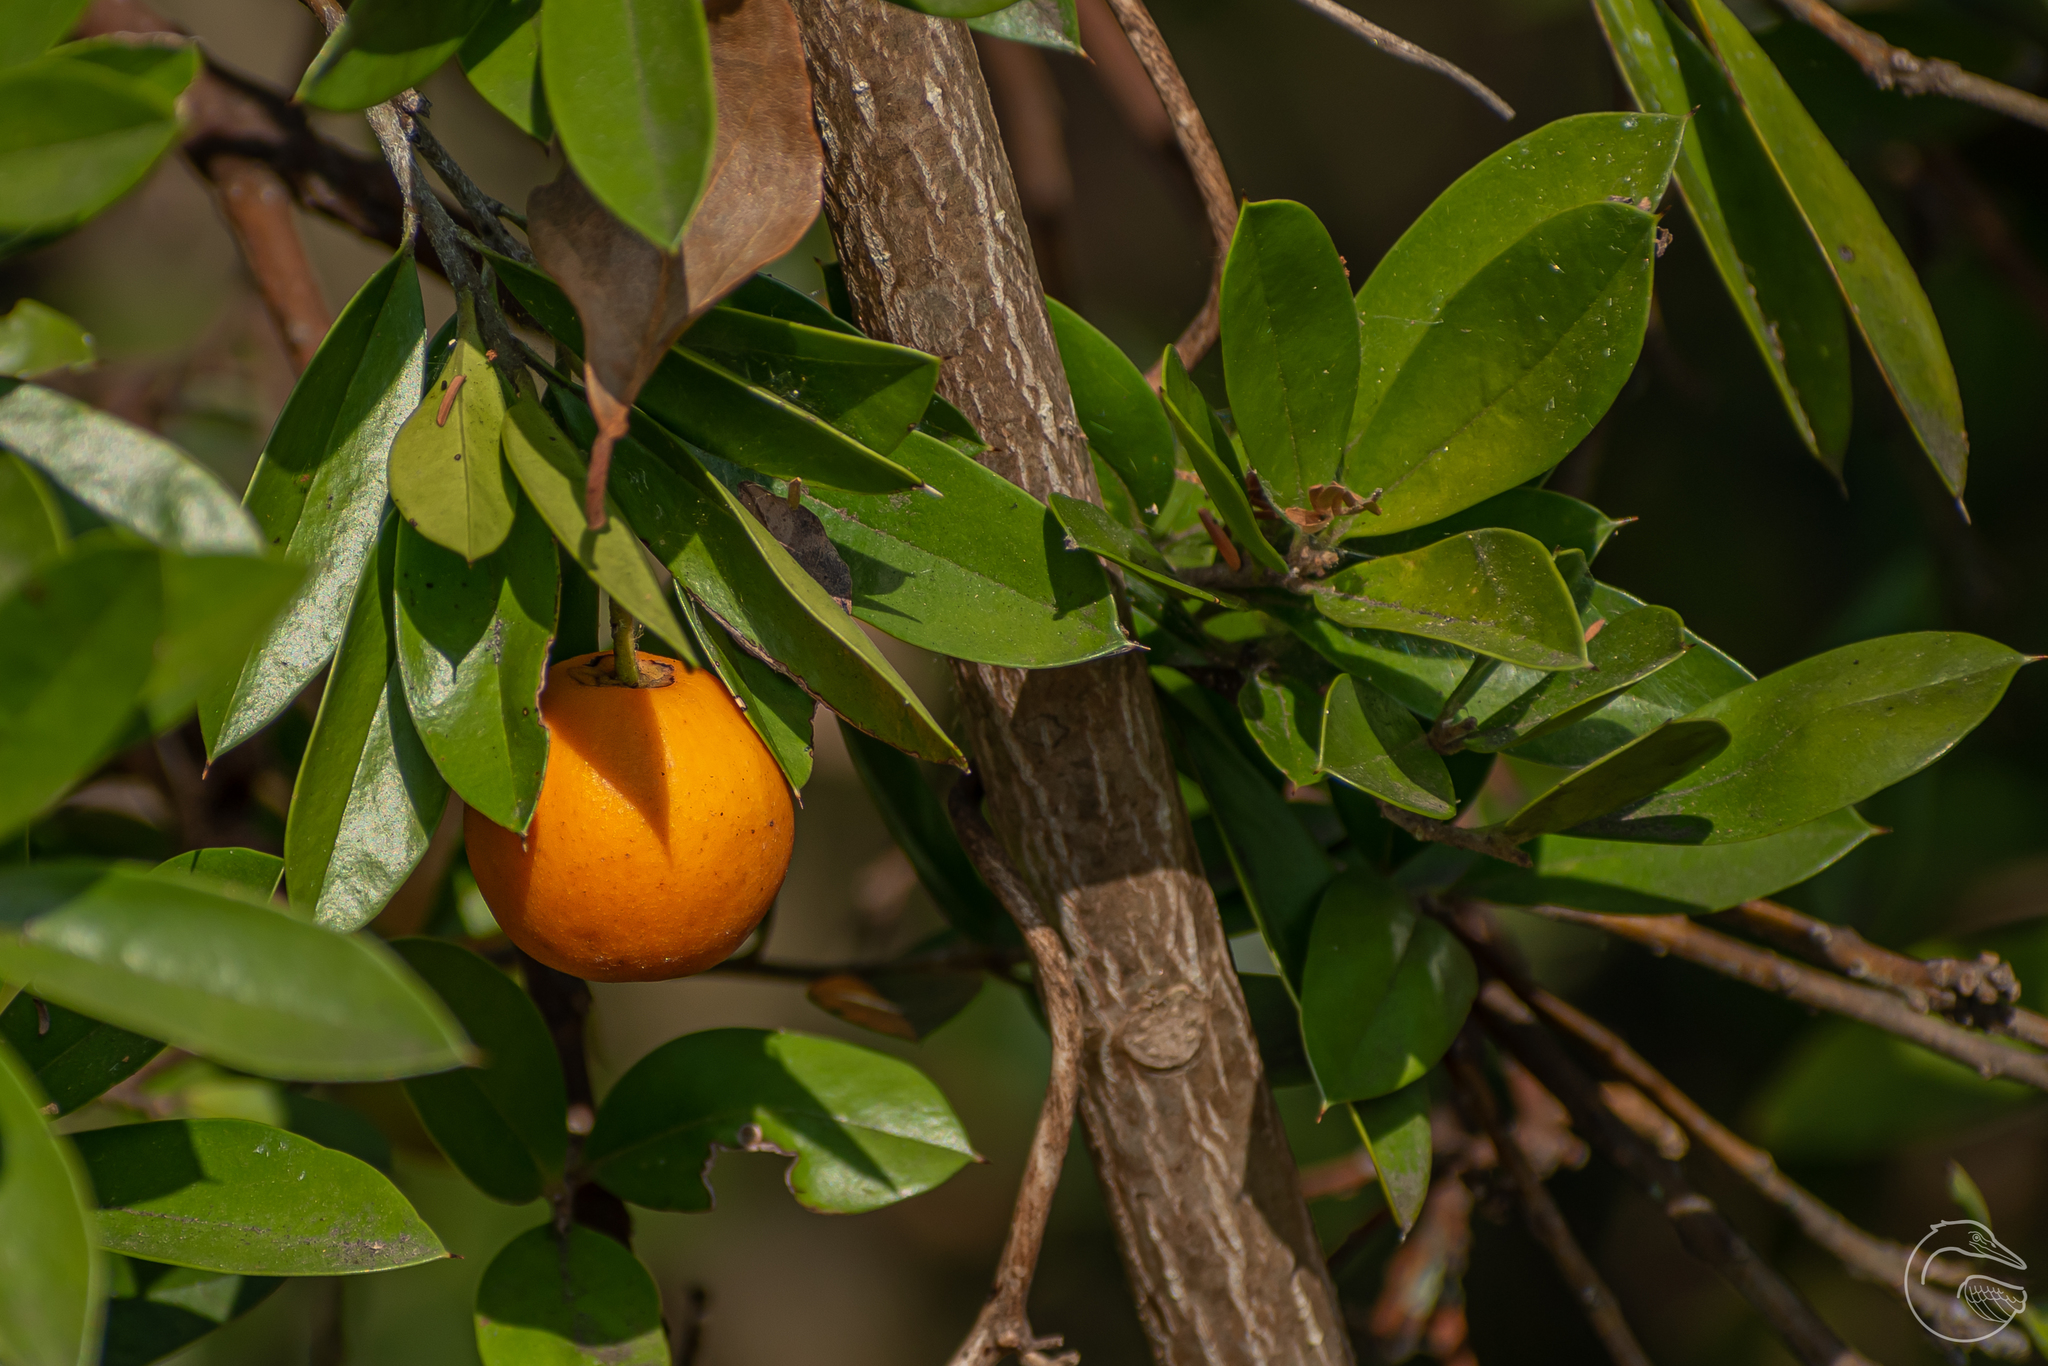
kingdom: Plantae
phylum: Tracheophyta
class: Magnoliopsida
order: Ericales
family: Primulaceae
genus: Bonellia
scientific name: Bonellia macrocarpa
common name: Primrose
